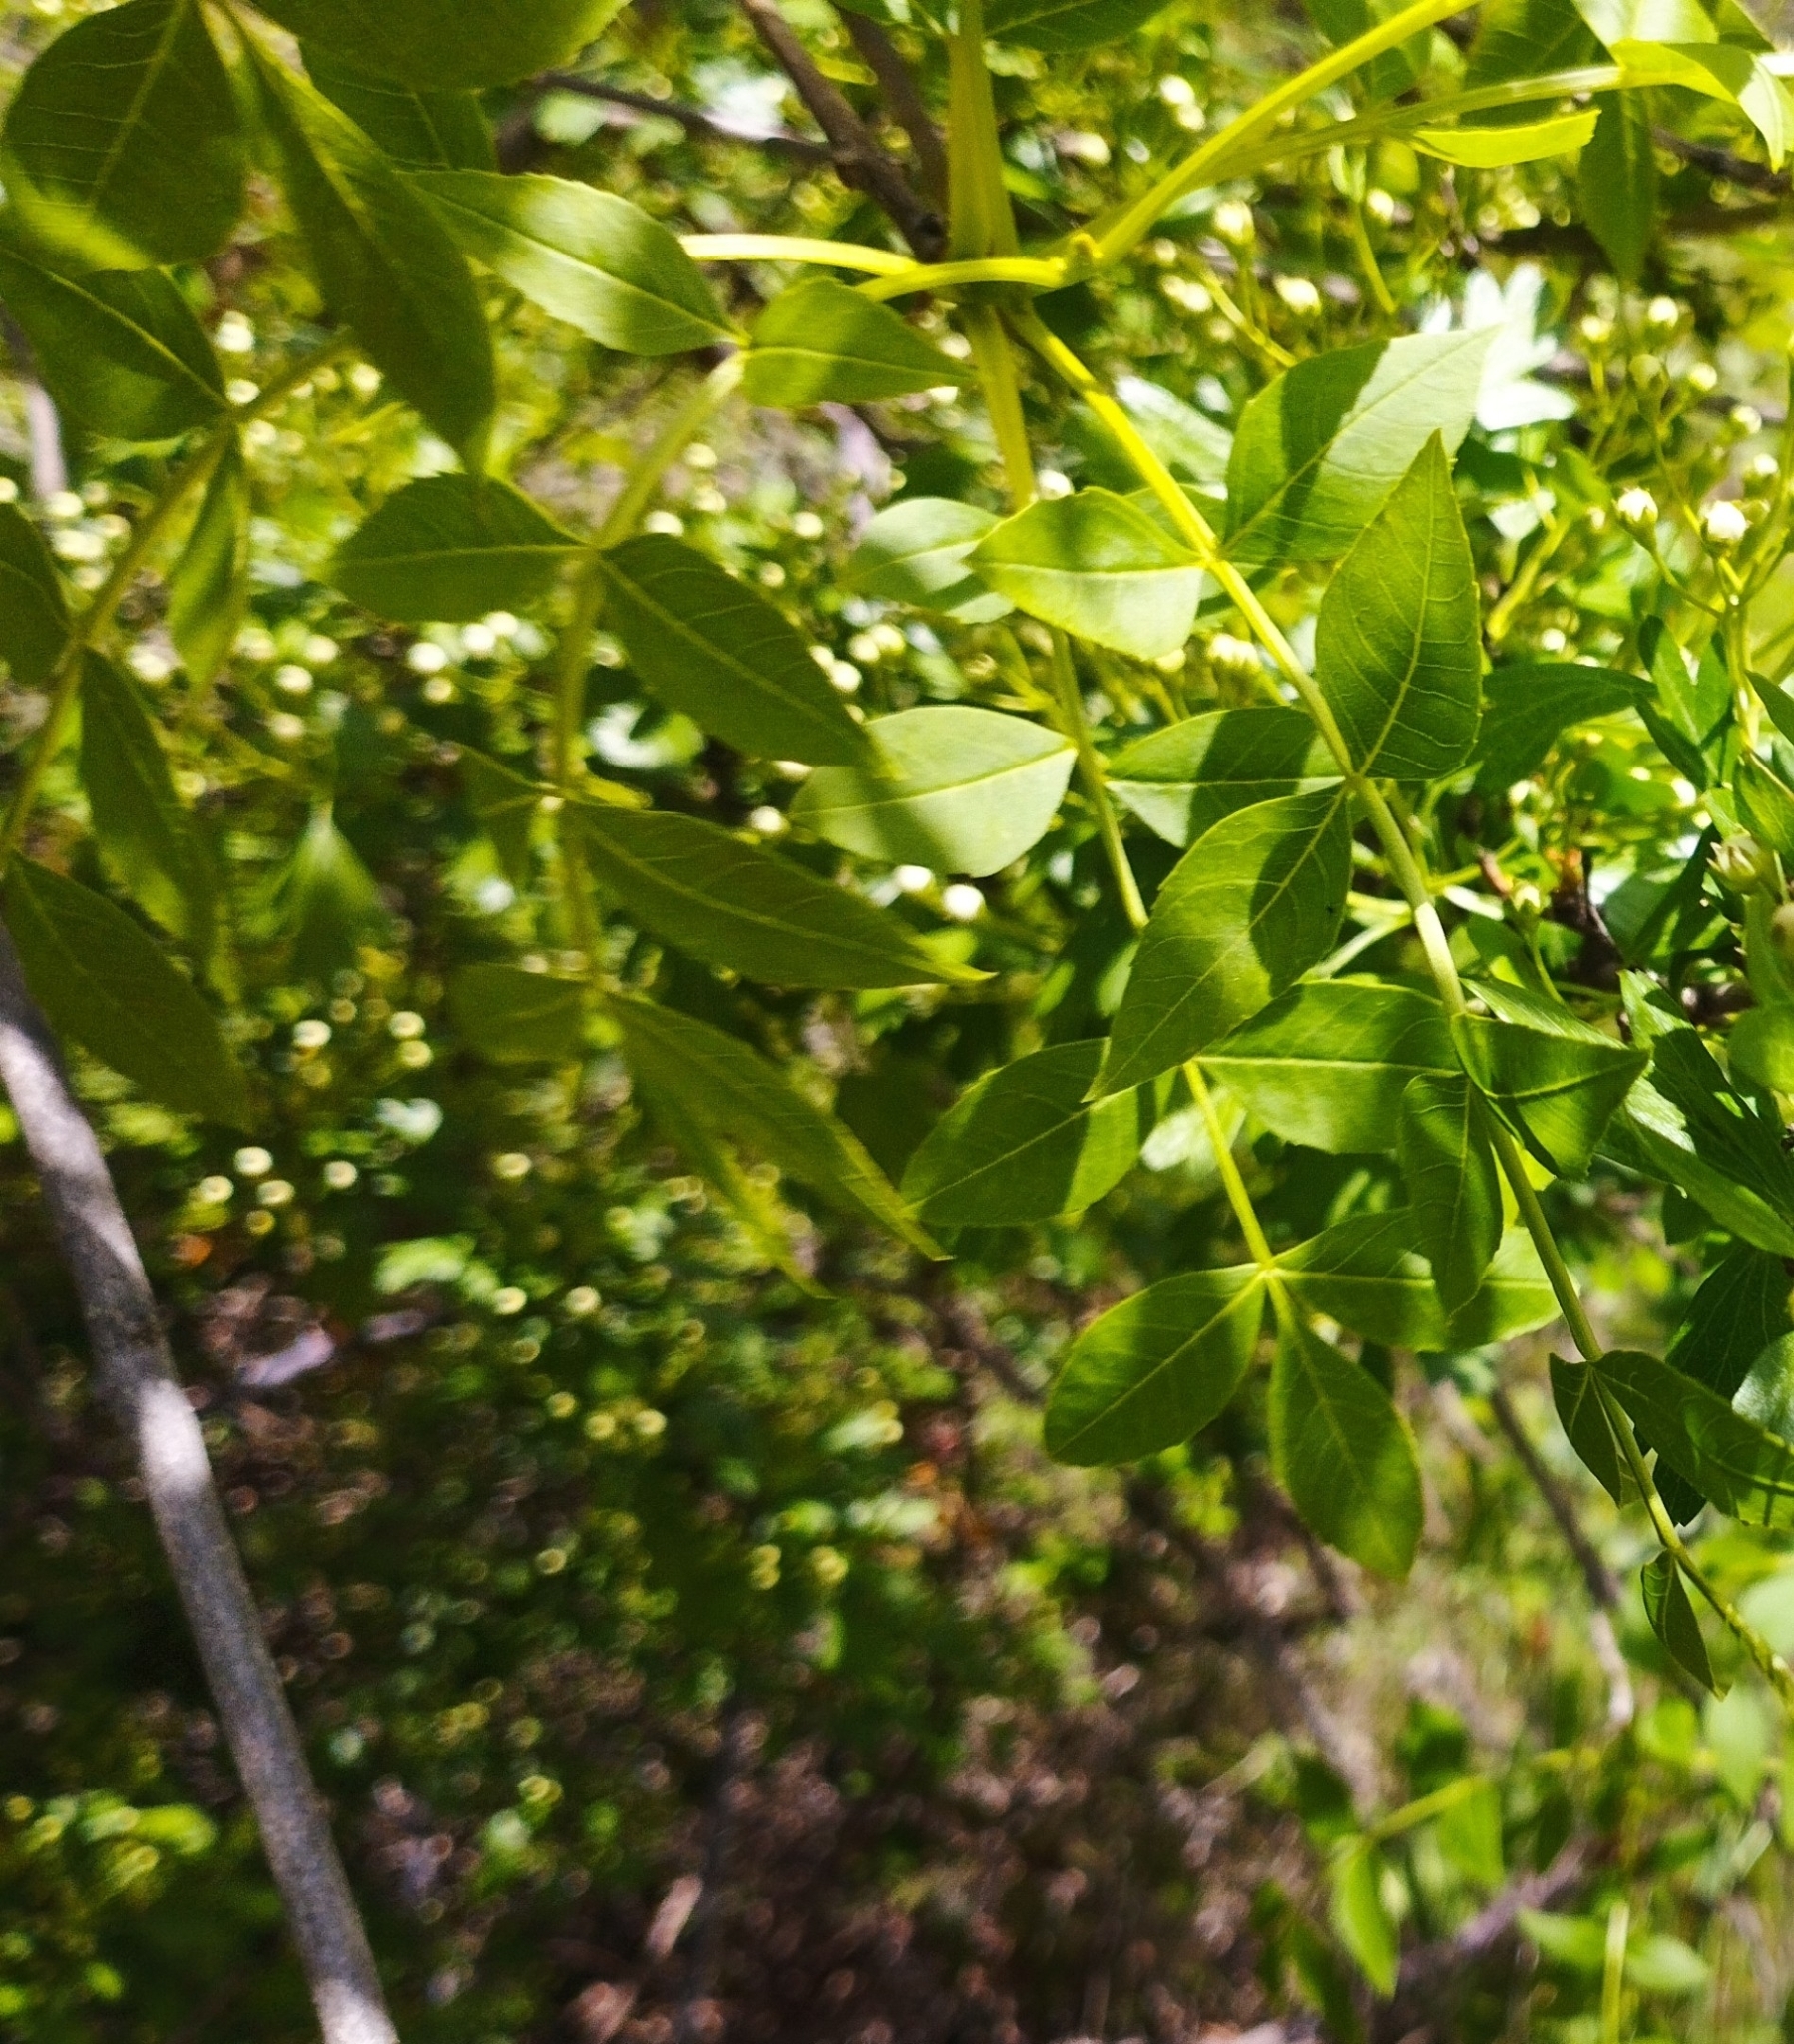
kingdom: Plantae
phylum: Tracheophyta
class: Magnoliopsida
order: Lamiales
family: Oleaceae
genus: Fraxinus
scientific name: Fraxinus angustifolia
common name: Narrow-leafed ash
